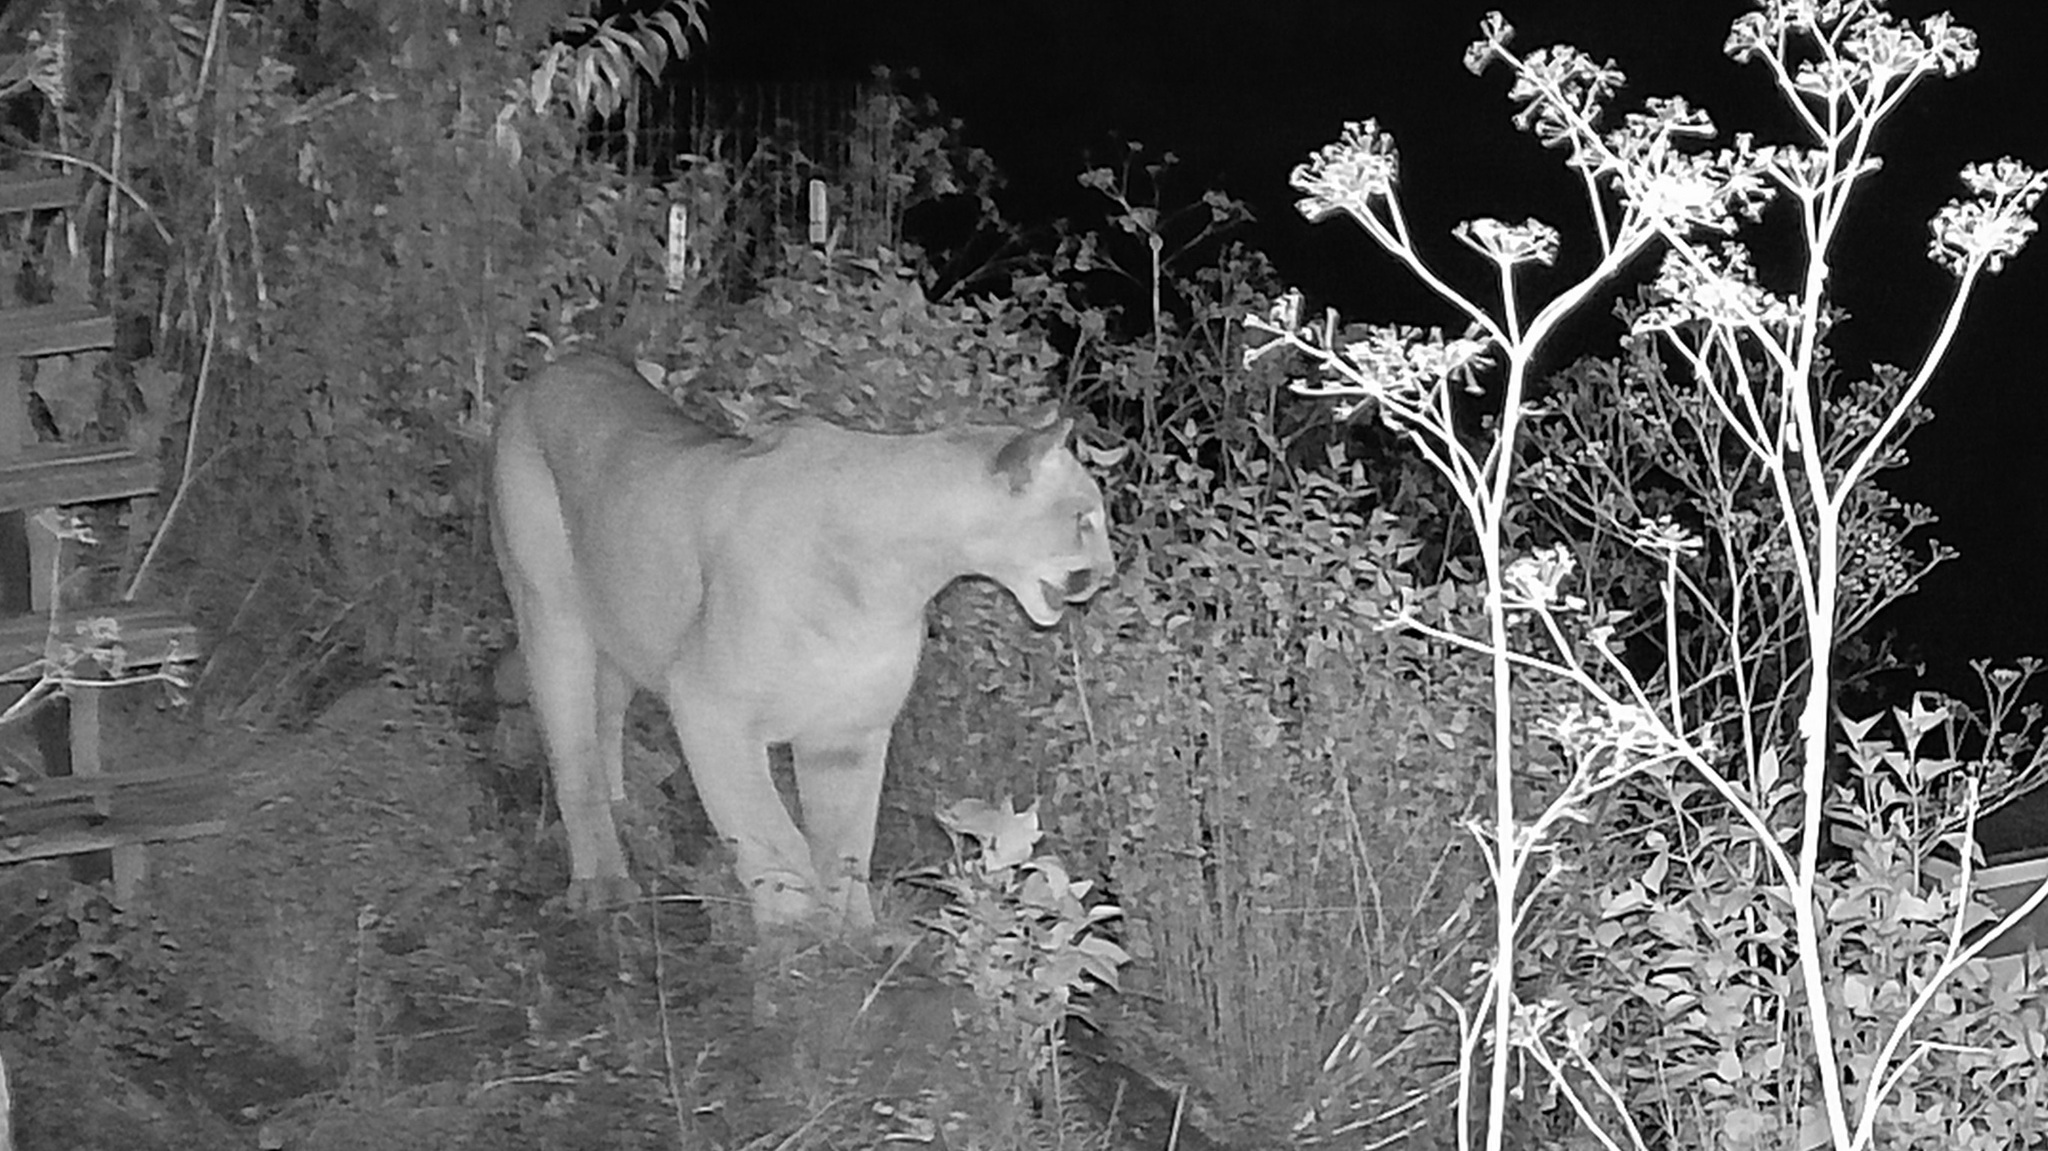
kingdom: Animalia
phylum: Chordata
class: Mammalia
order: Carnivora
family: Felidae
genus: Puma
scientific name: Puma concolor
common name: Puma
